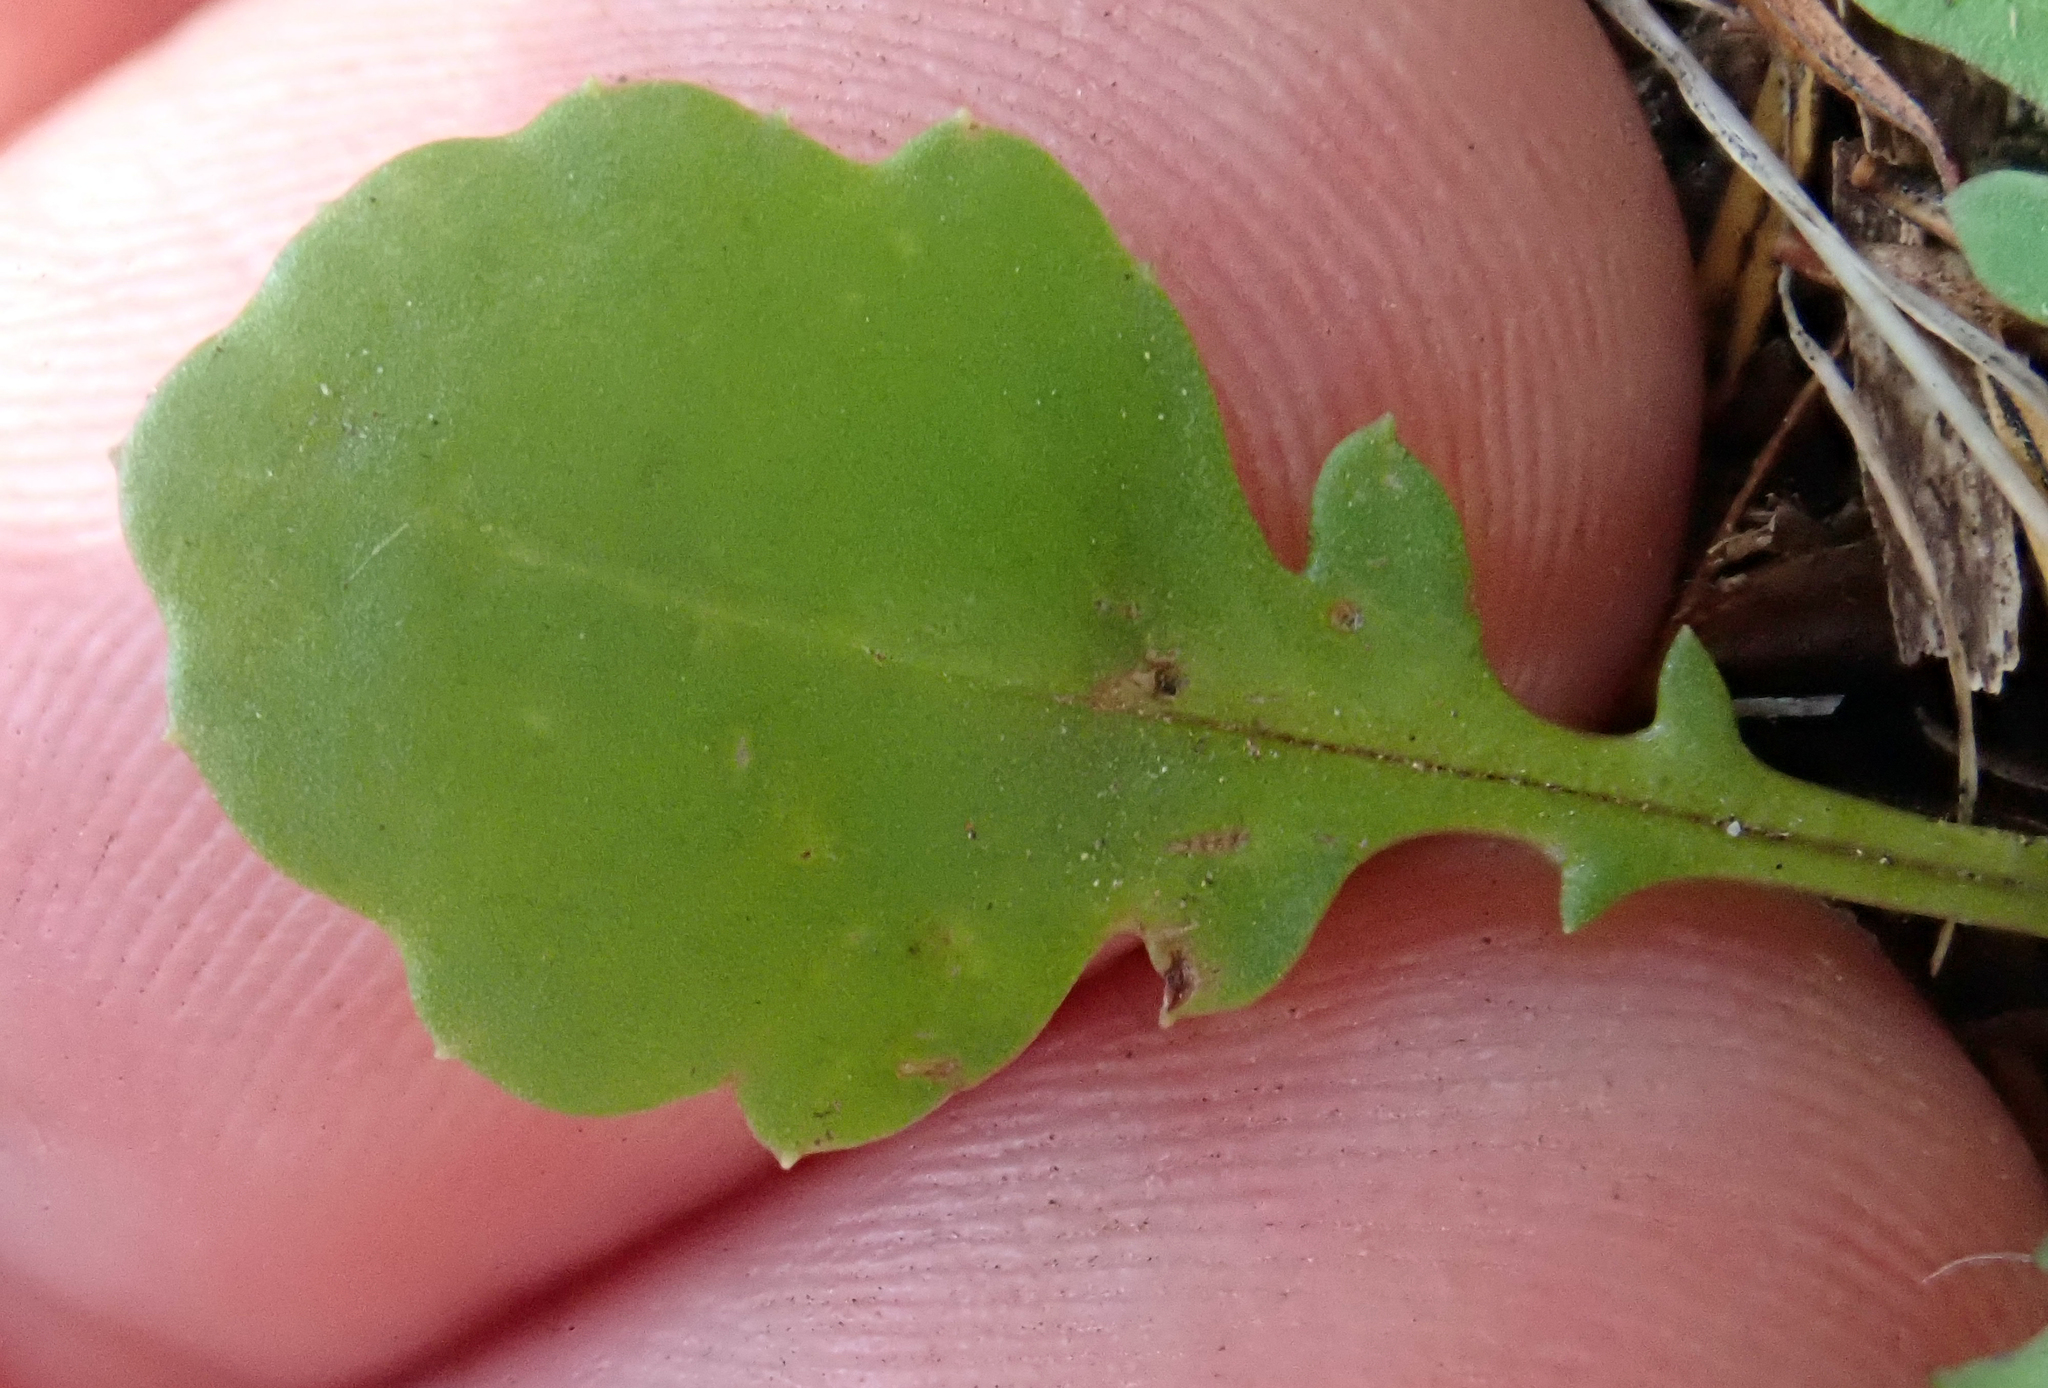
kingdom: Plantae
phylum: Tracheophyta
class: Magnoliopsida
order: Asterales
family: Asteraceae
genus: Lagenophora
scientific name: Lagenophora pumila
